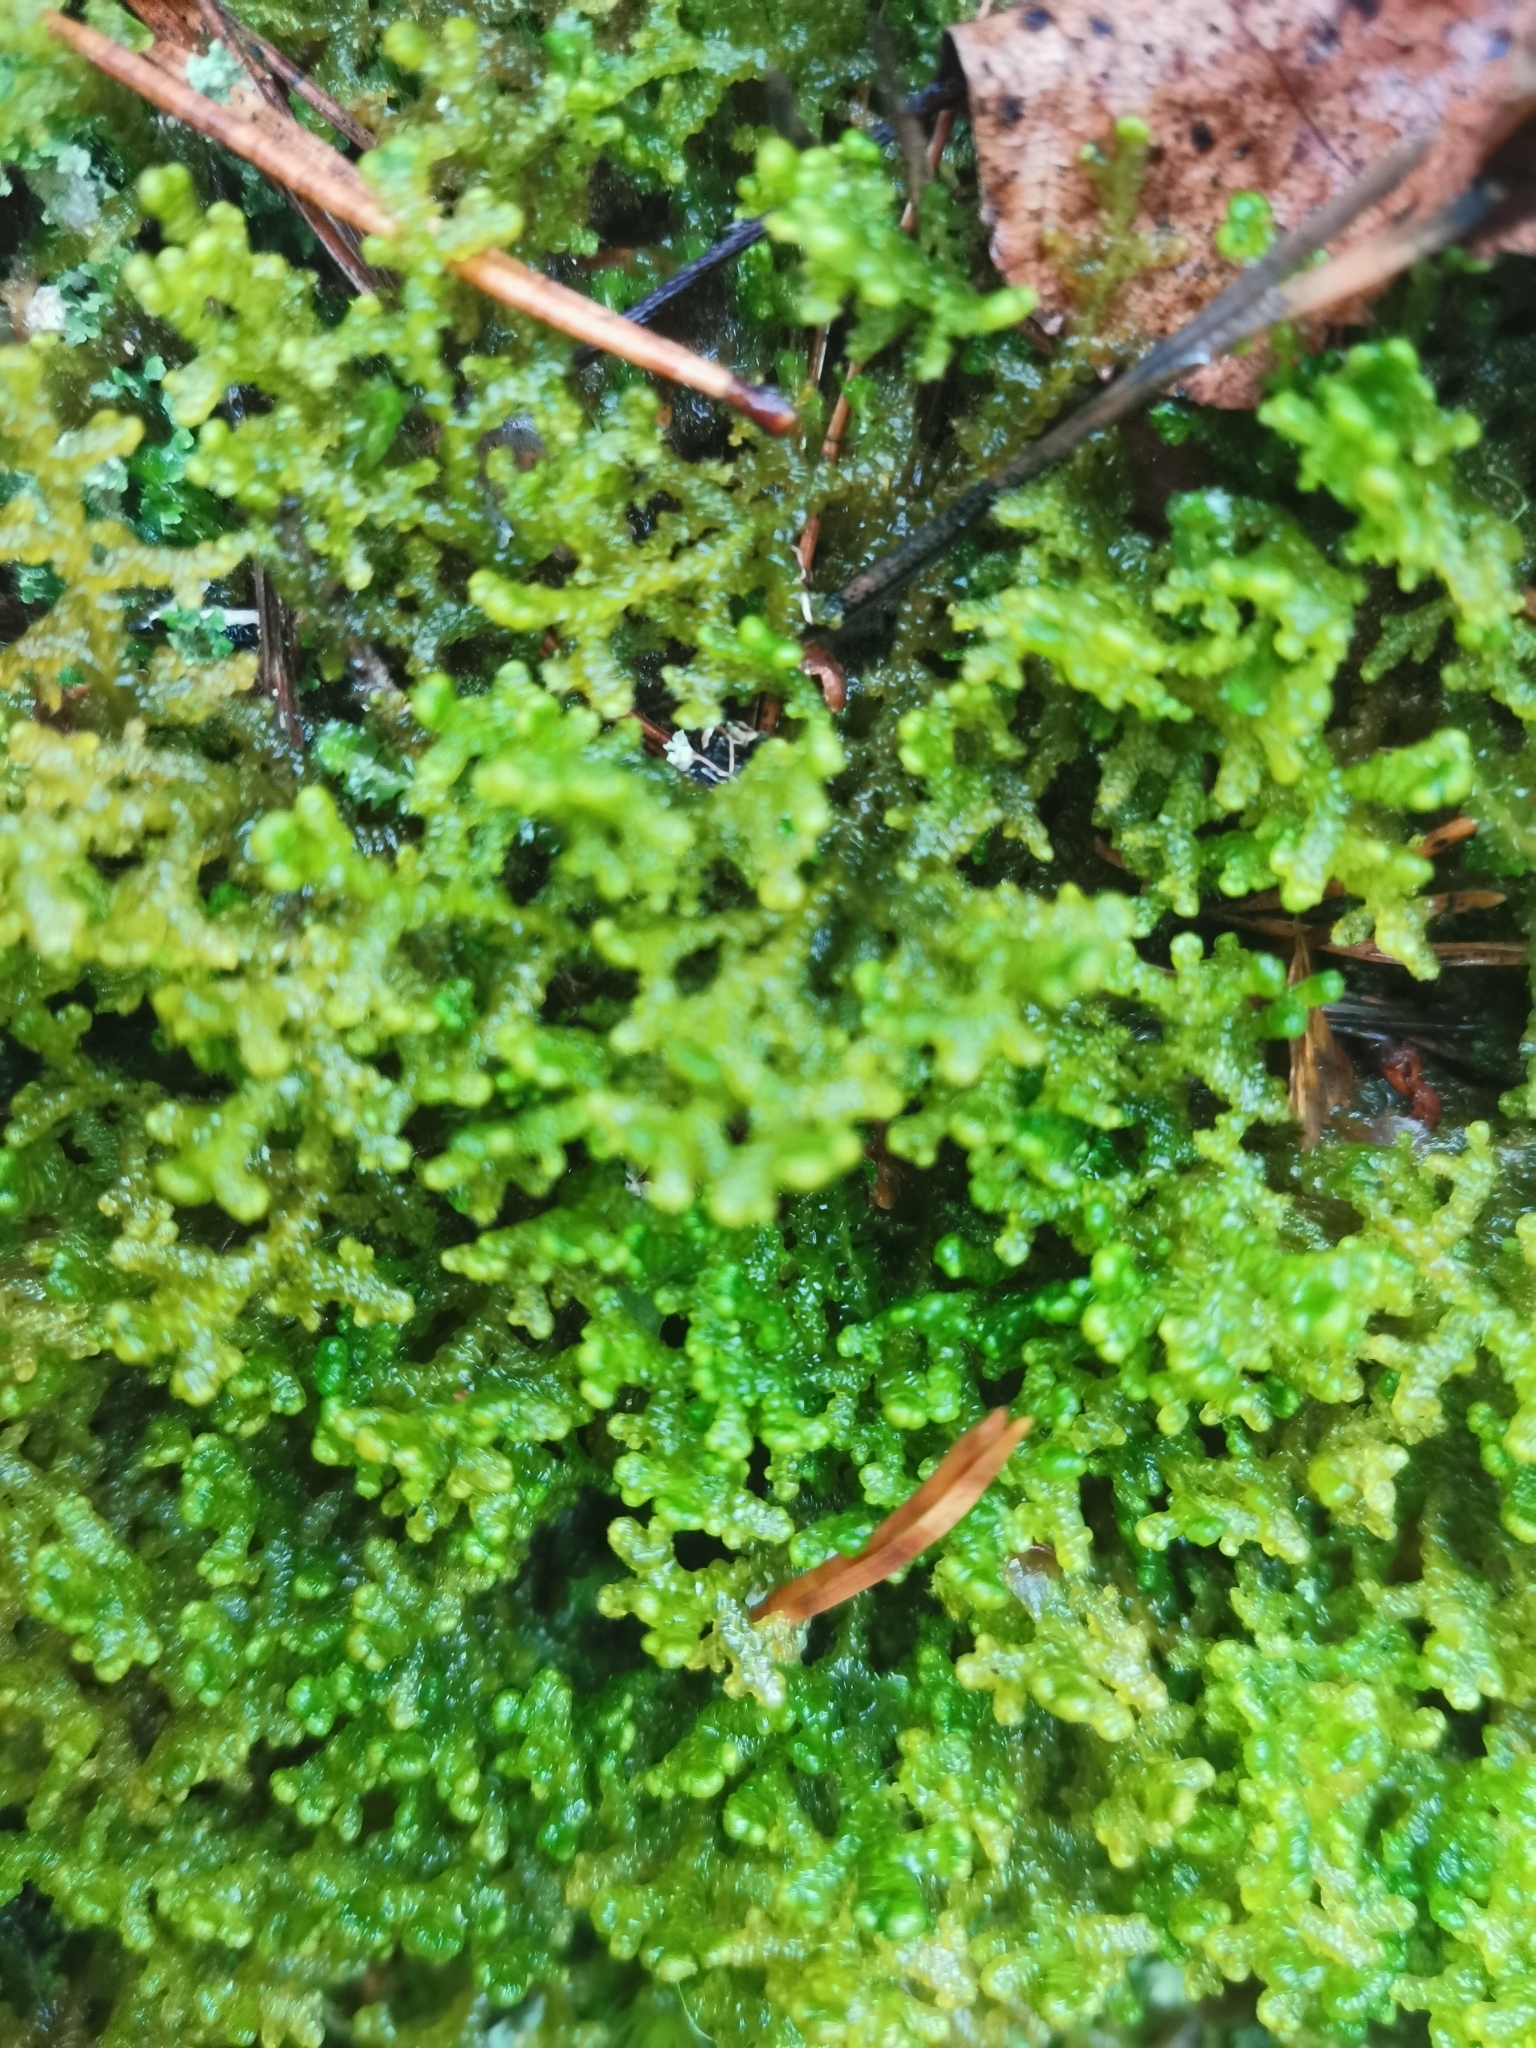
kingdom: Plantae
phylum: Marchantiophyta
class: Jungermanniopsida
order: Ptilidiales
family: Ptilidiaceae
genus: Ptilidium
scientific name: Ptilidium ciliare
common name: Ciliate fringewort
